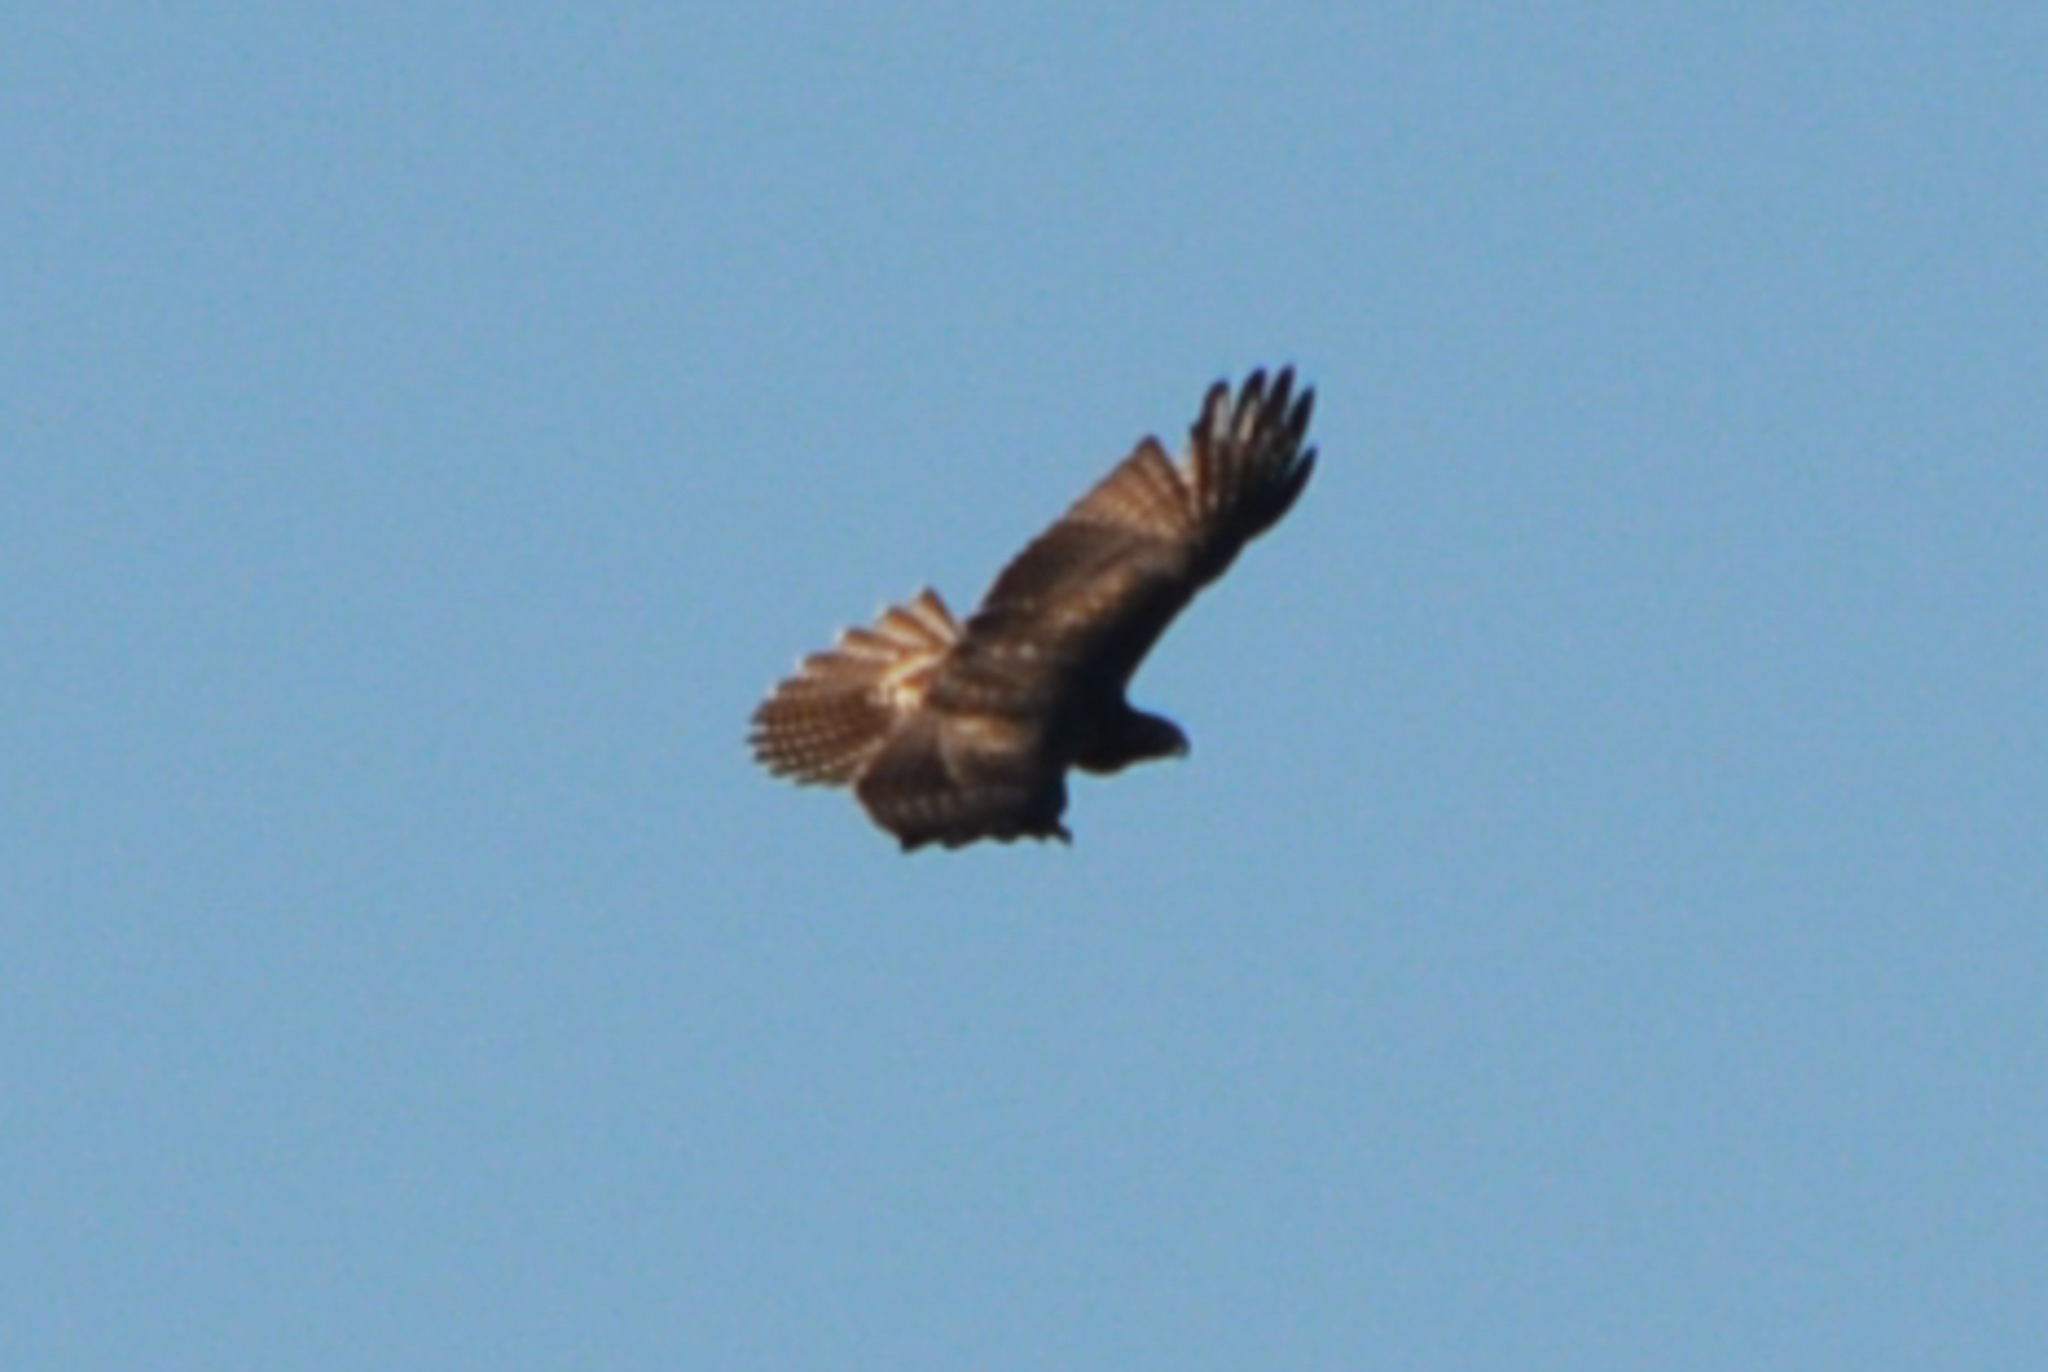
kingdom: Animalia
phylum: Chordata
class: Aves
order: Accipitriformes
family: Accipitridae
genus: Buteo
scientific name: Buteo jamaicensis
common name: Red-tailed hawk
